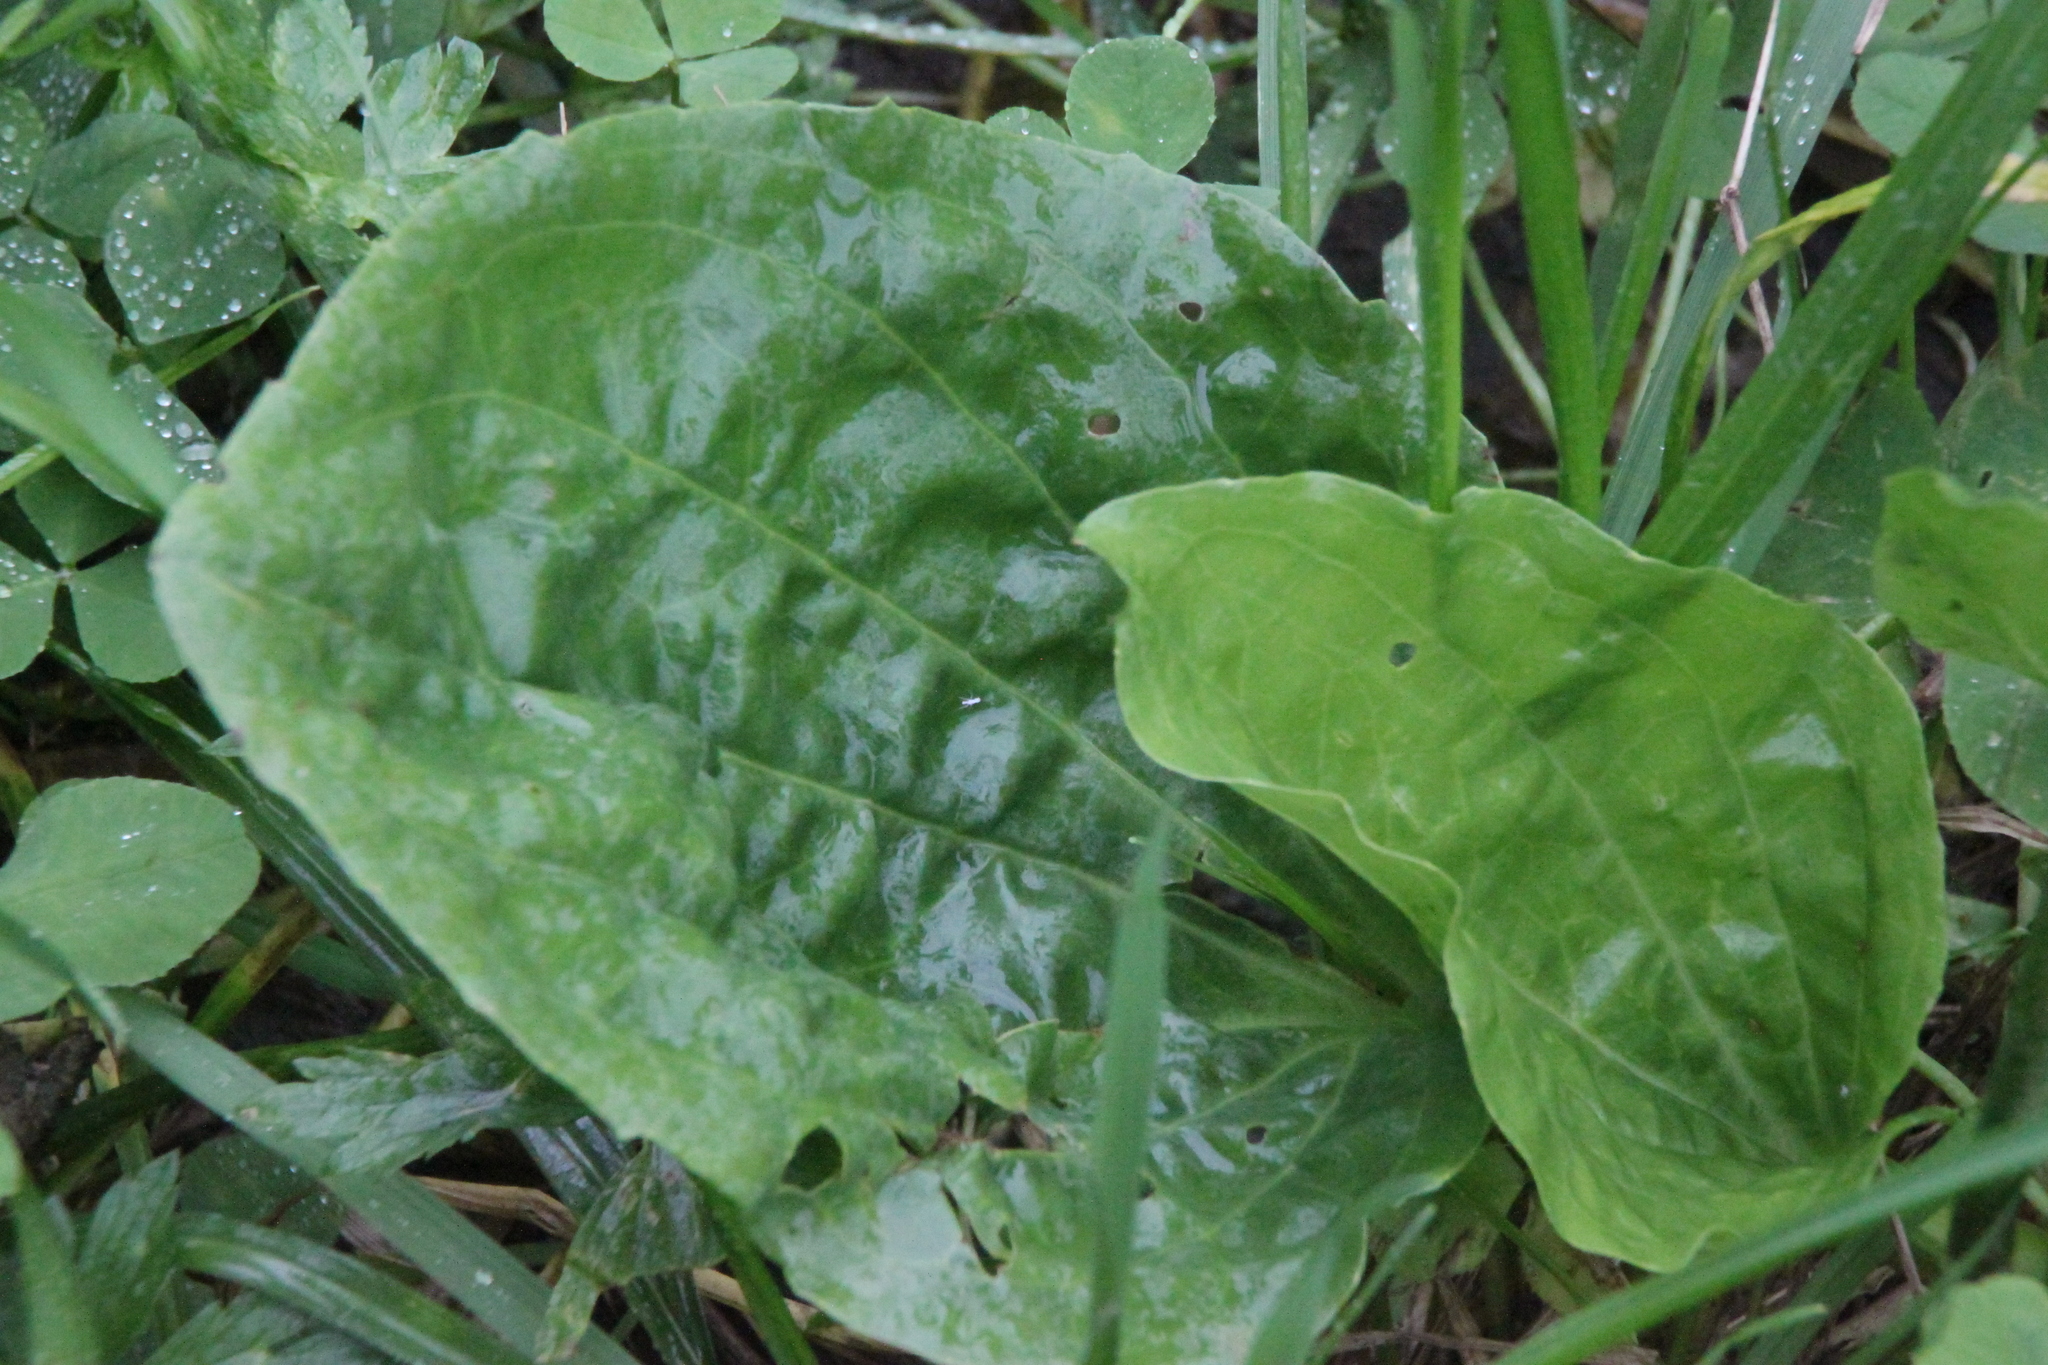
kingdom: Plantae
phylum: Tracheophyta
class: Magnoliopsida
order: Lamiales
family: Plantaginaceae
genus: Plantago
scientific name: Plantago major
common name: Common plantain
